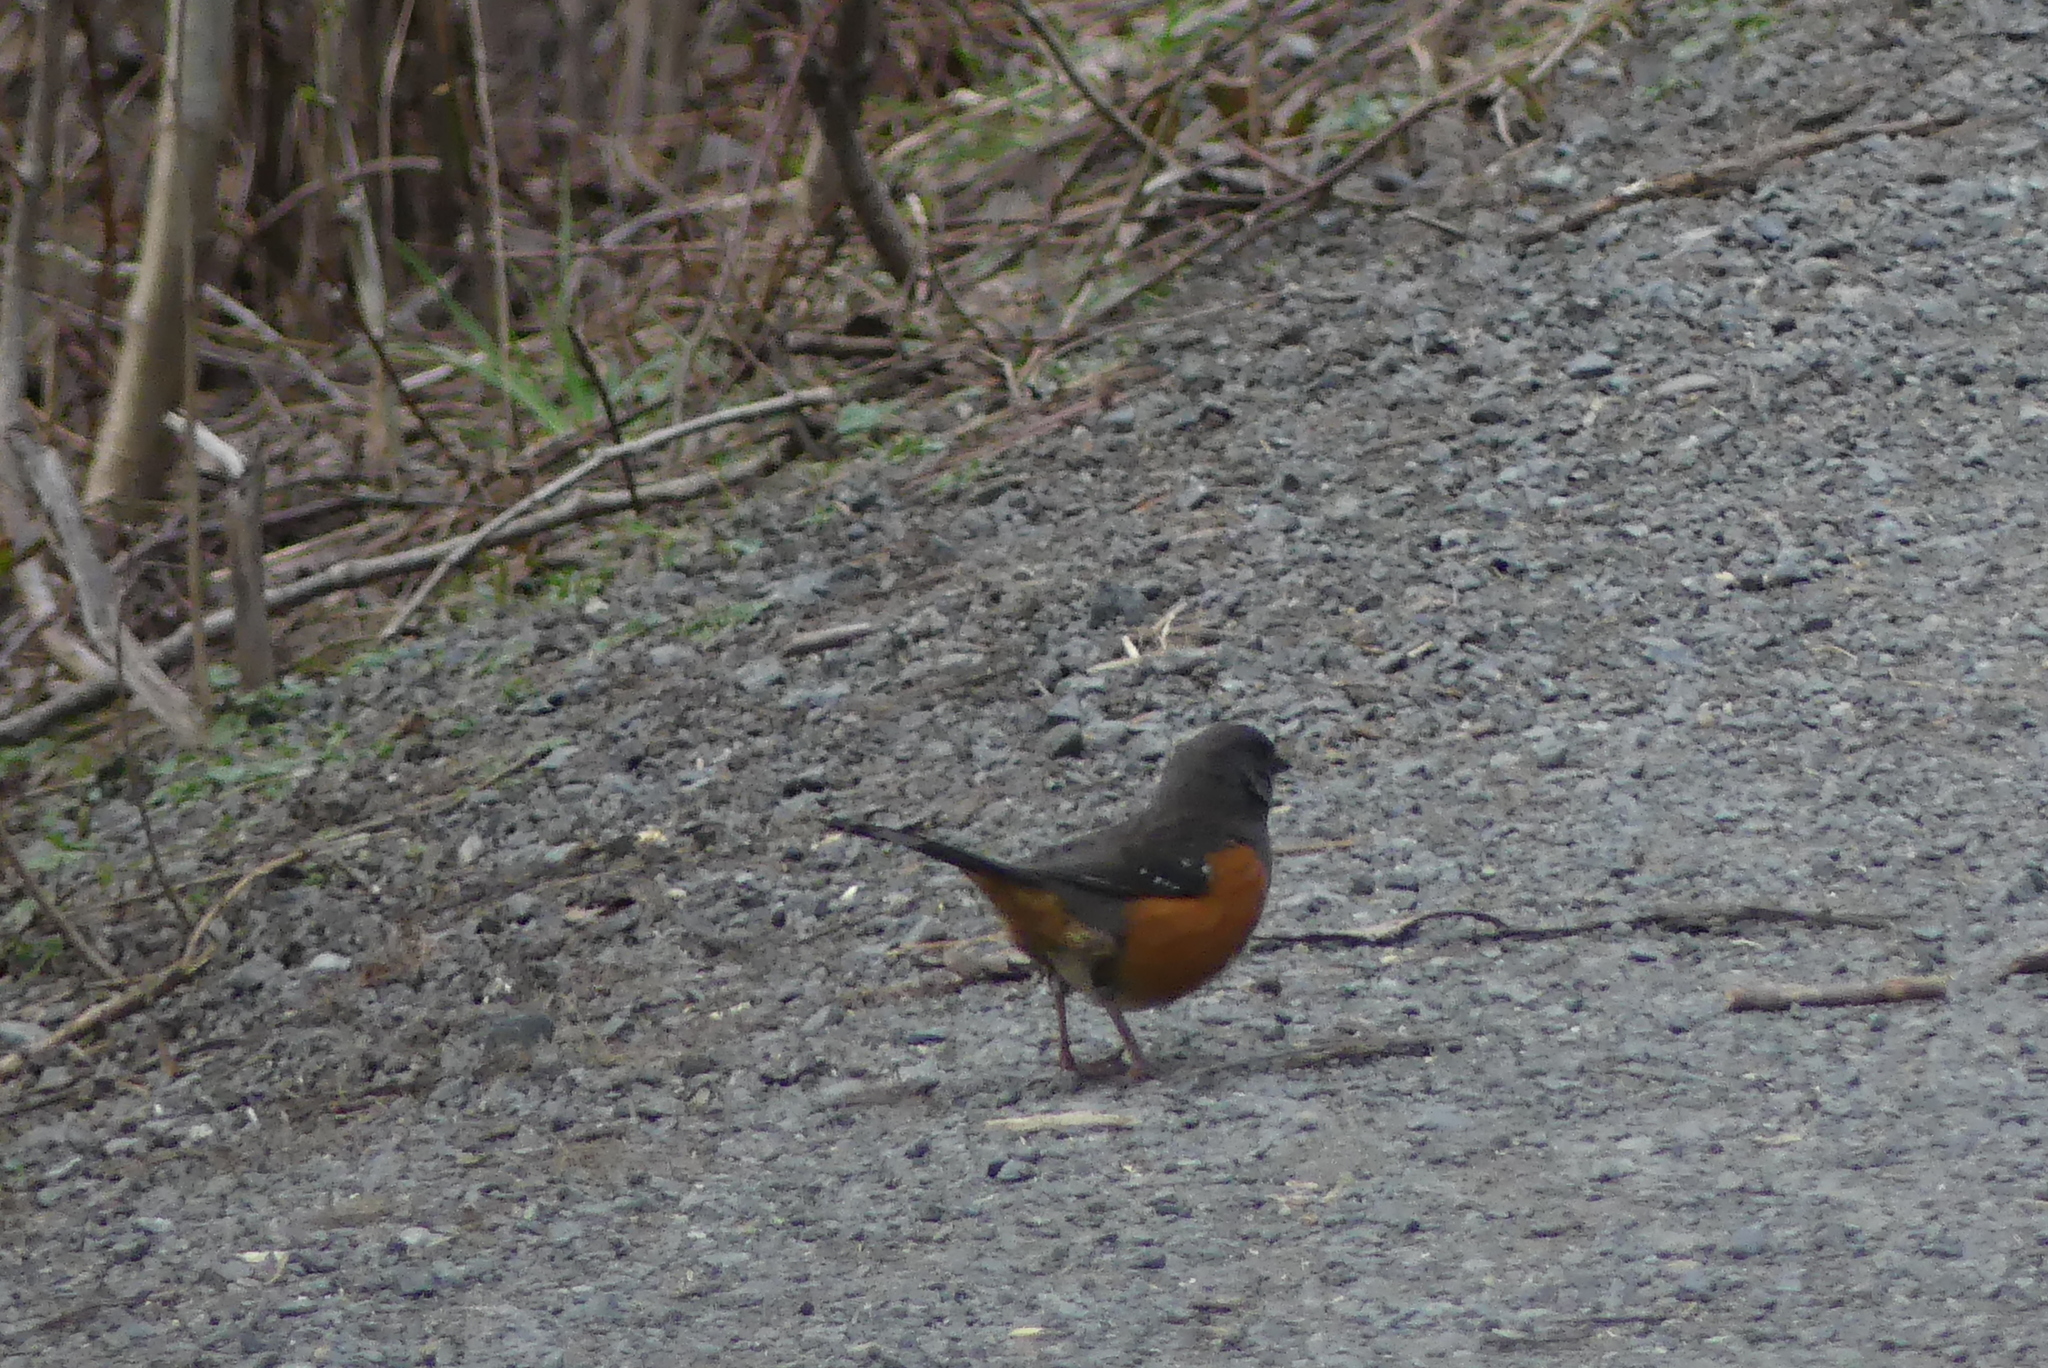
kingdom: Animalia
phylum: Chordata
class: Aves
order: Passeriformes
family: Passerellidae
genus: Pipilo
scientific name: Pipilo maculatus
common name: Spotted towhee
